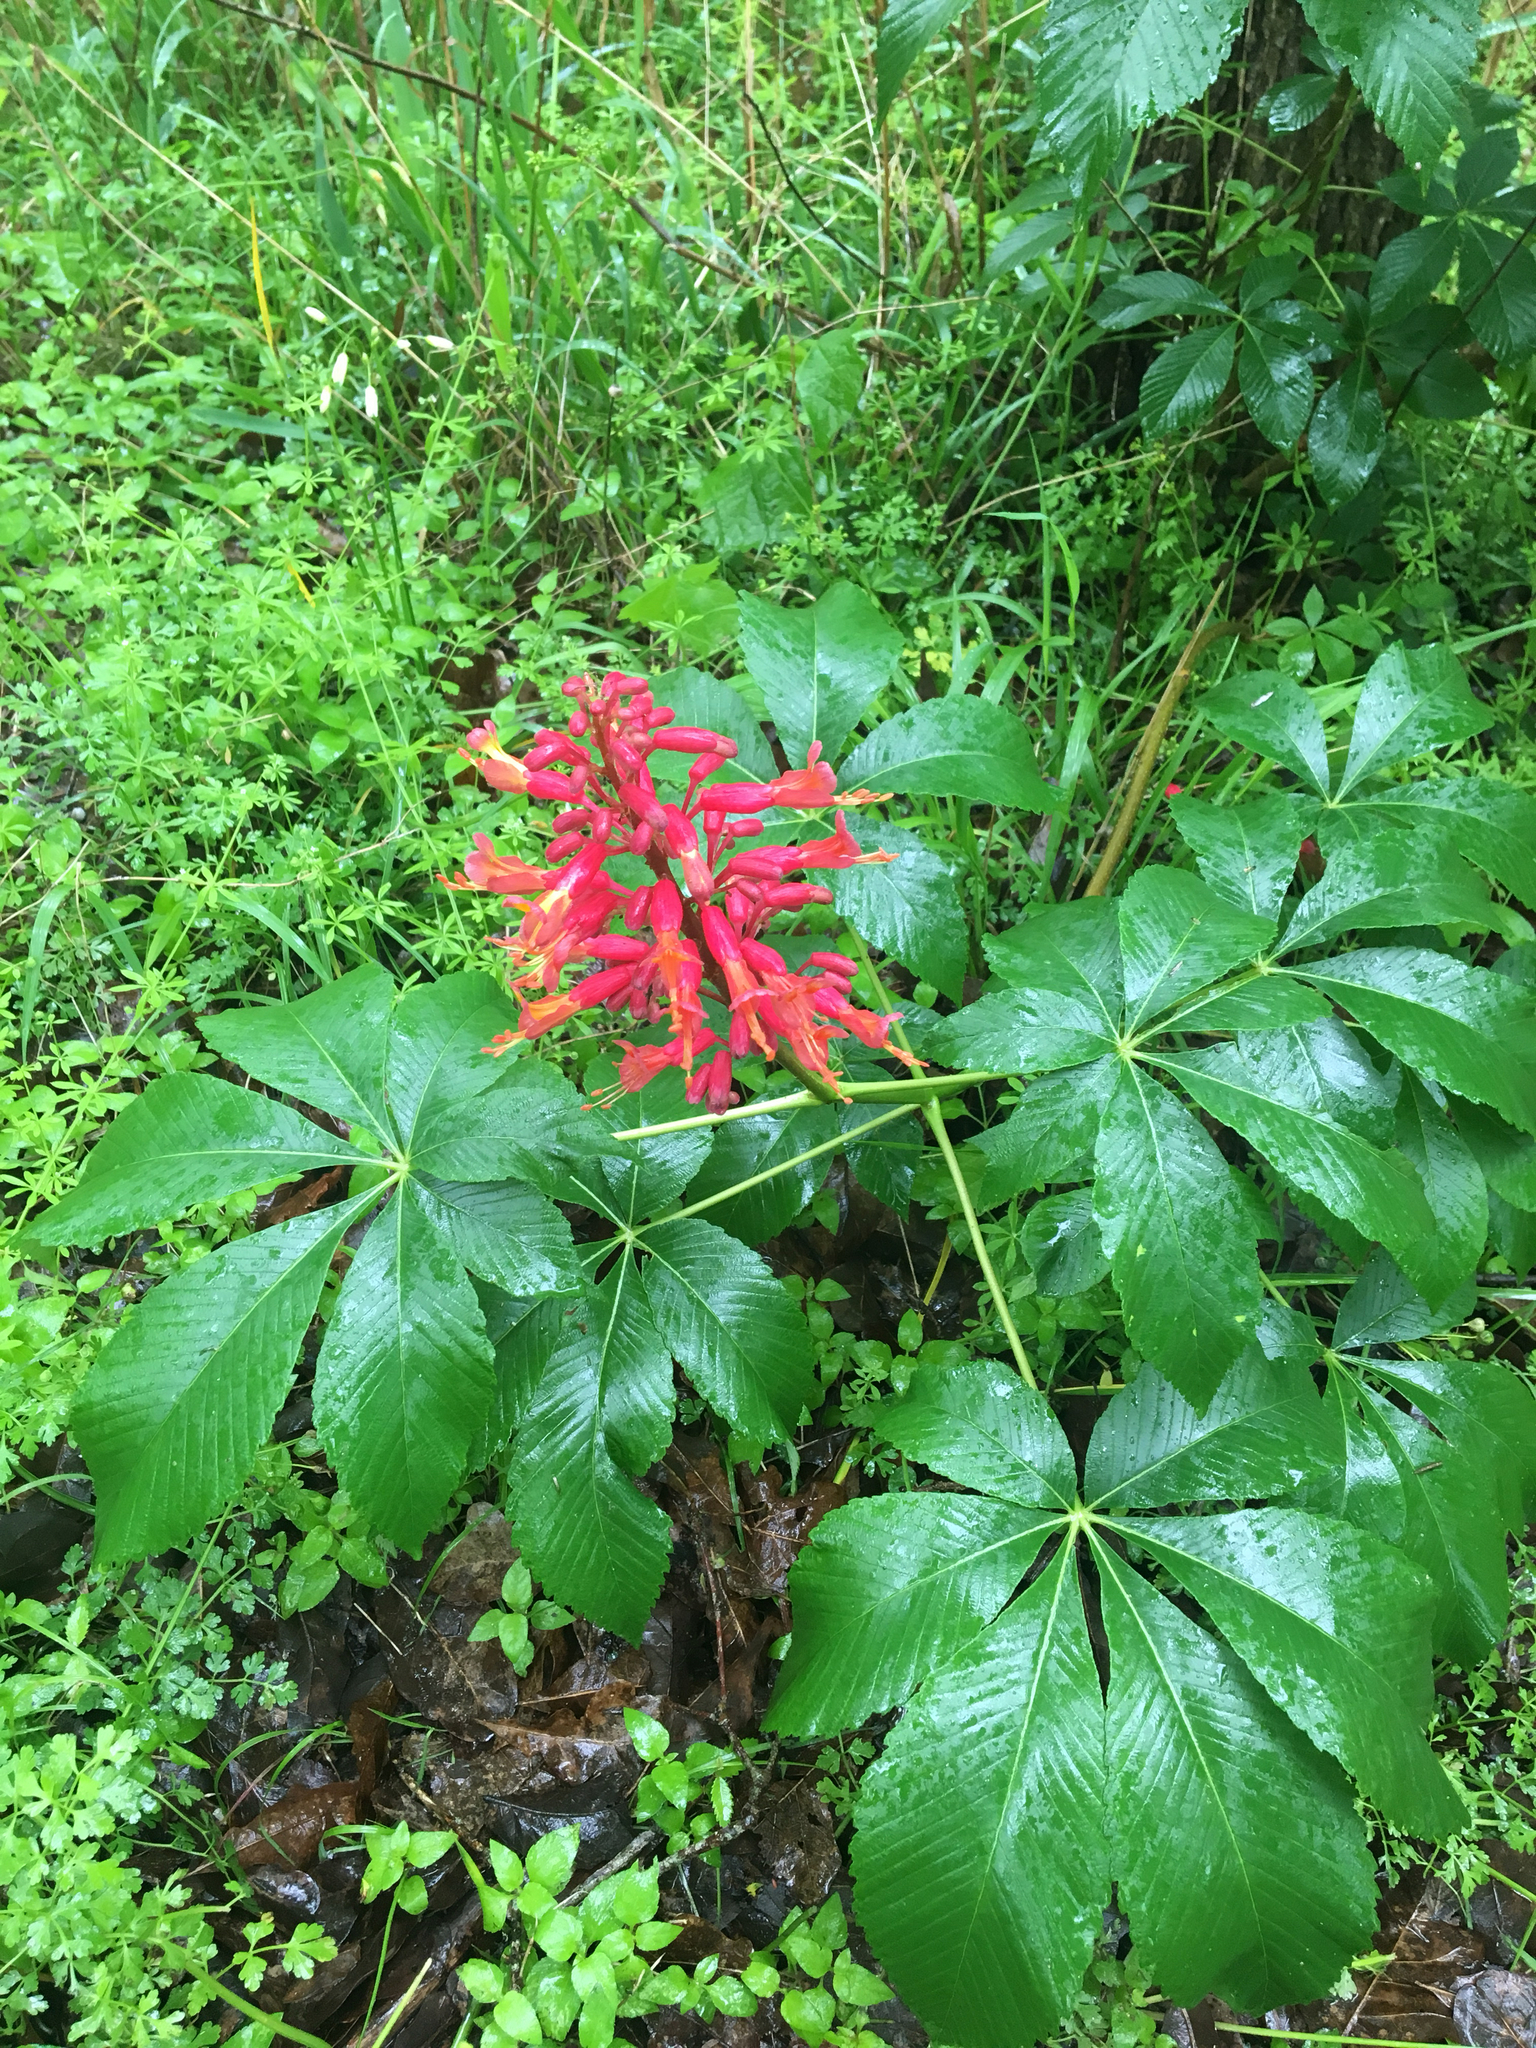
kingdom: Plantae
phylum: Tracheophyta
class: Magnoliopsida
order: Sapindales
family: Sapindaceae
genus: Aesculus
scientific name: Aesculus pavia
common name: Red buckeye
